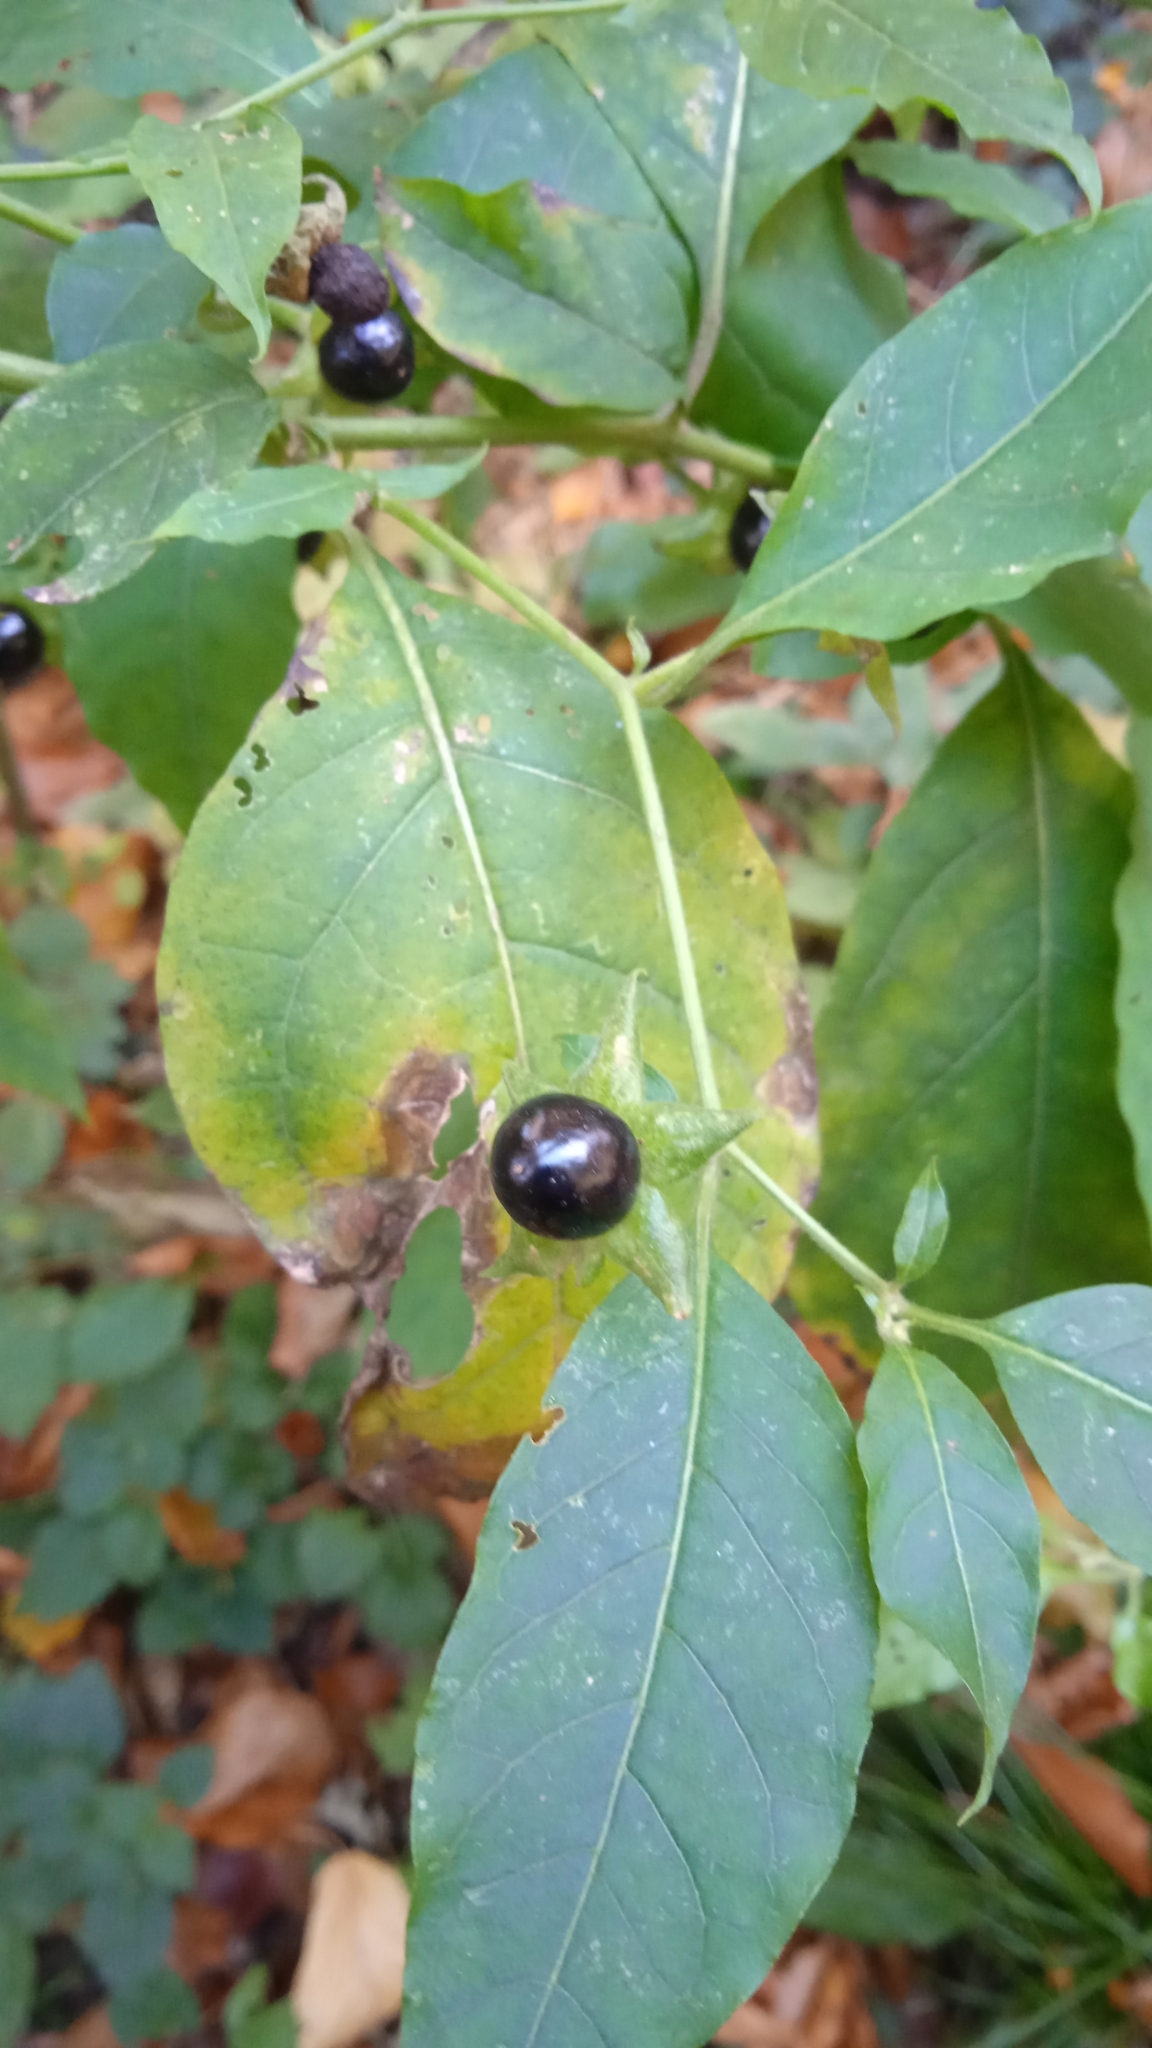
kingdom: Plantae
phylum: Tracheophyta
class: Magnoliopsida
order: Solanales
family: Solanaceae
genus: Atropa
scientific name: Atropa belladonna
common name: Deadly nightshade
